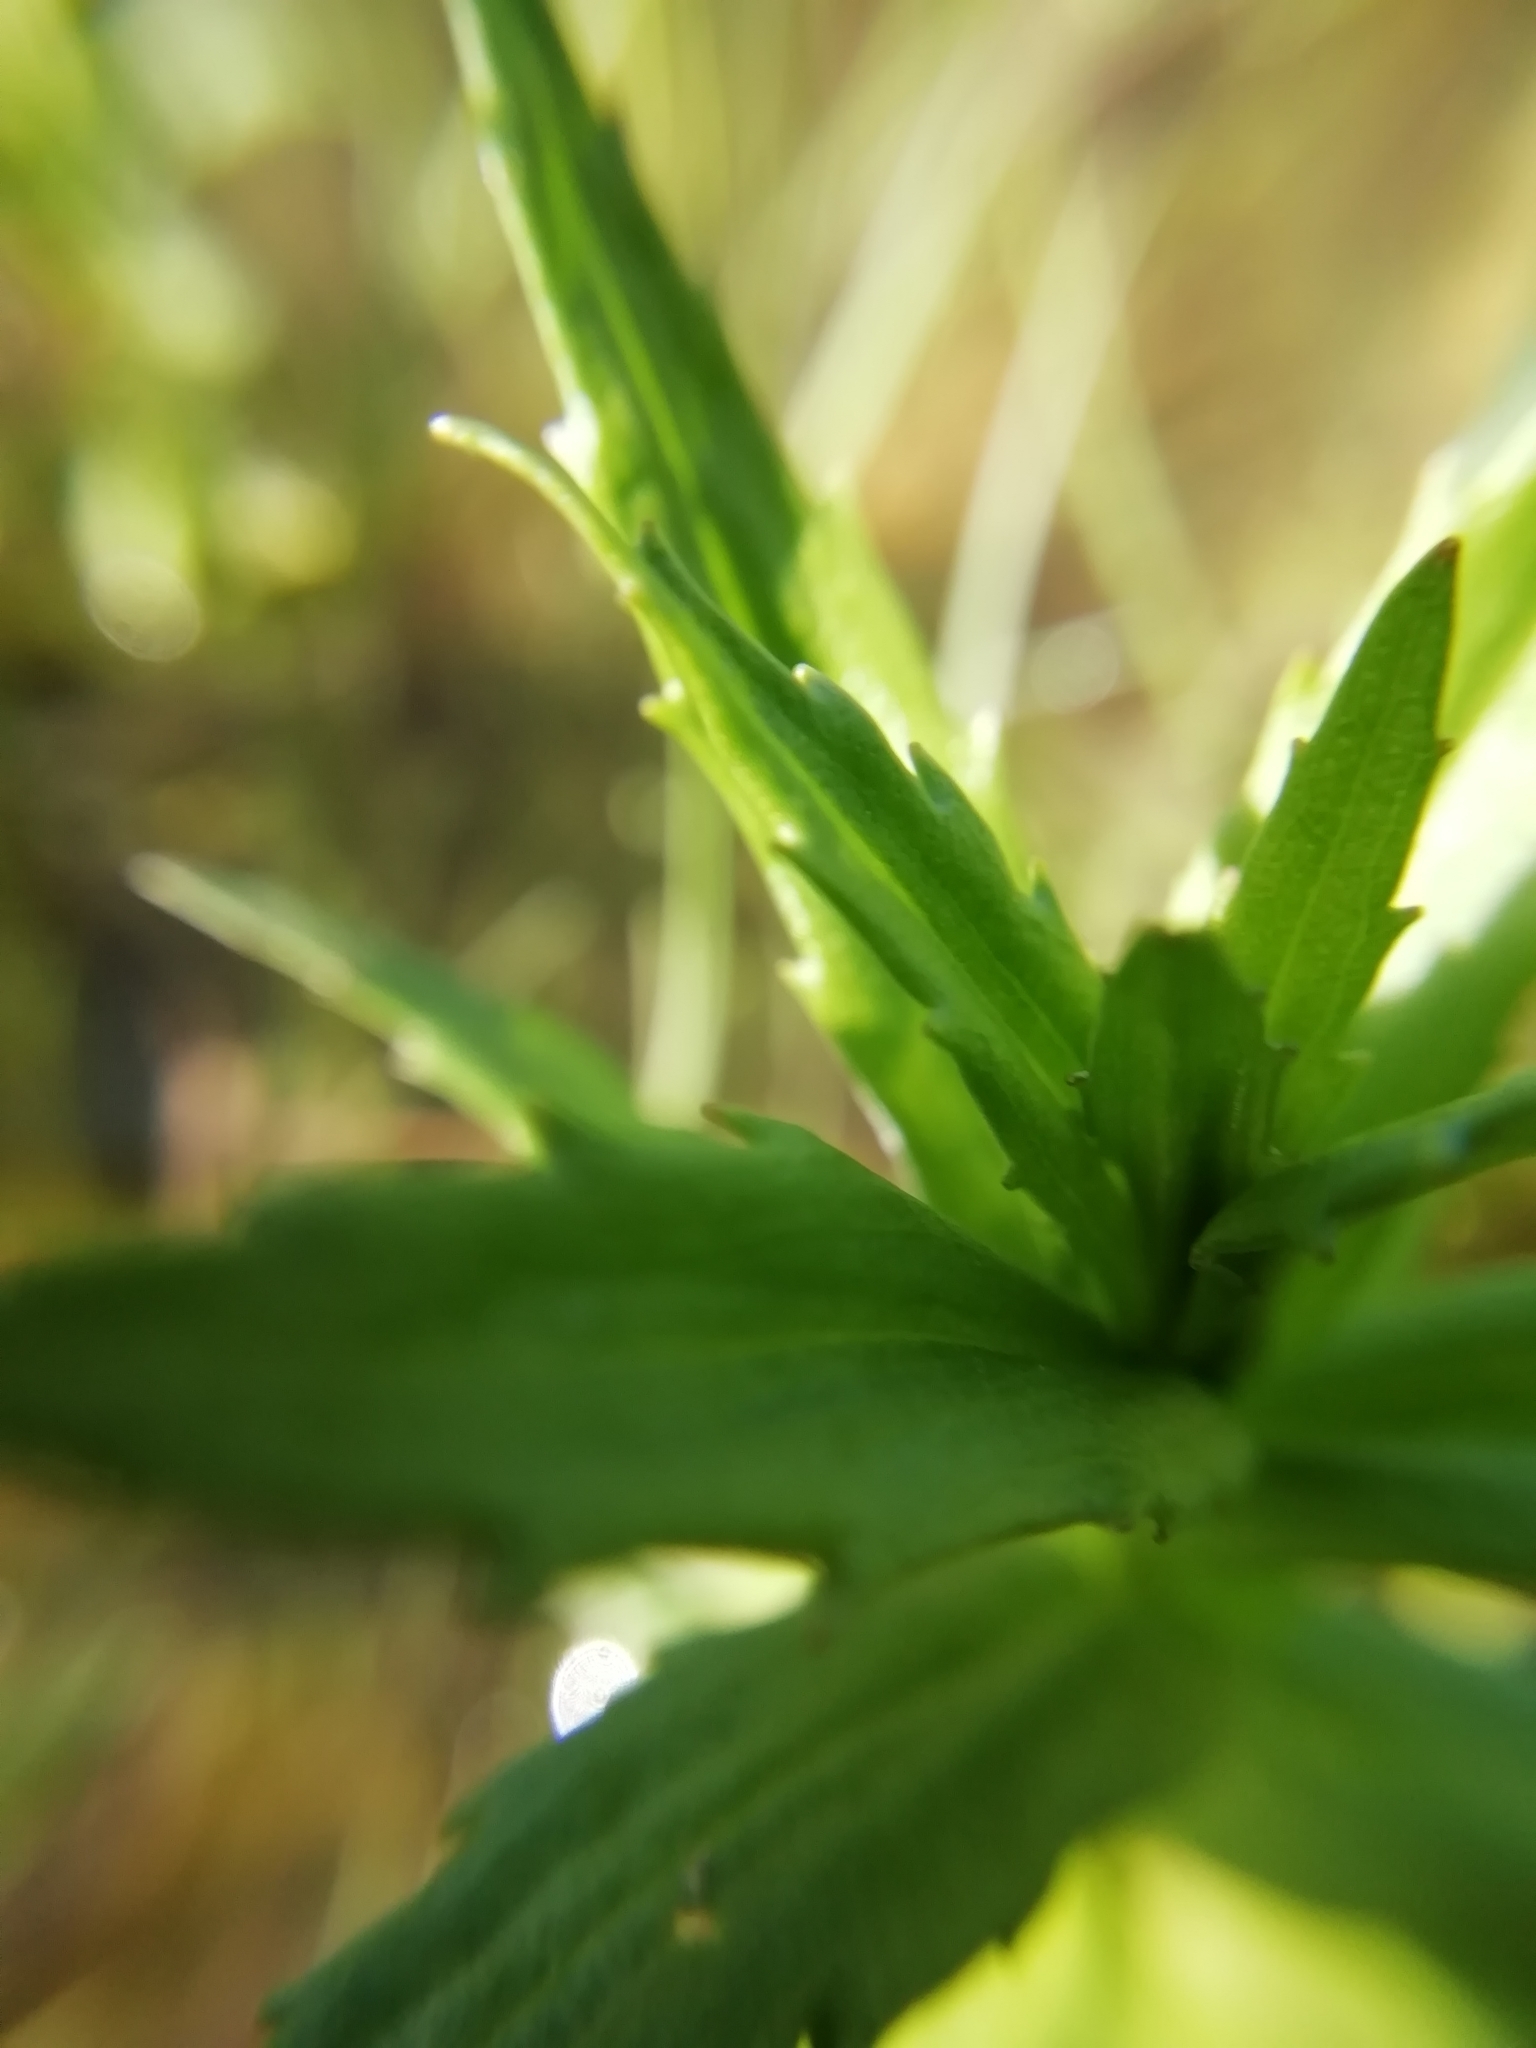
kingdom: Plantae
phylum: Tracheophyta
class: Magnoliopsida
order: Lamiales
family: Plantaginaceae
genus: Gratiola
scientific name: Gratiola officinalis
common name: Gratiola
